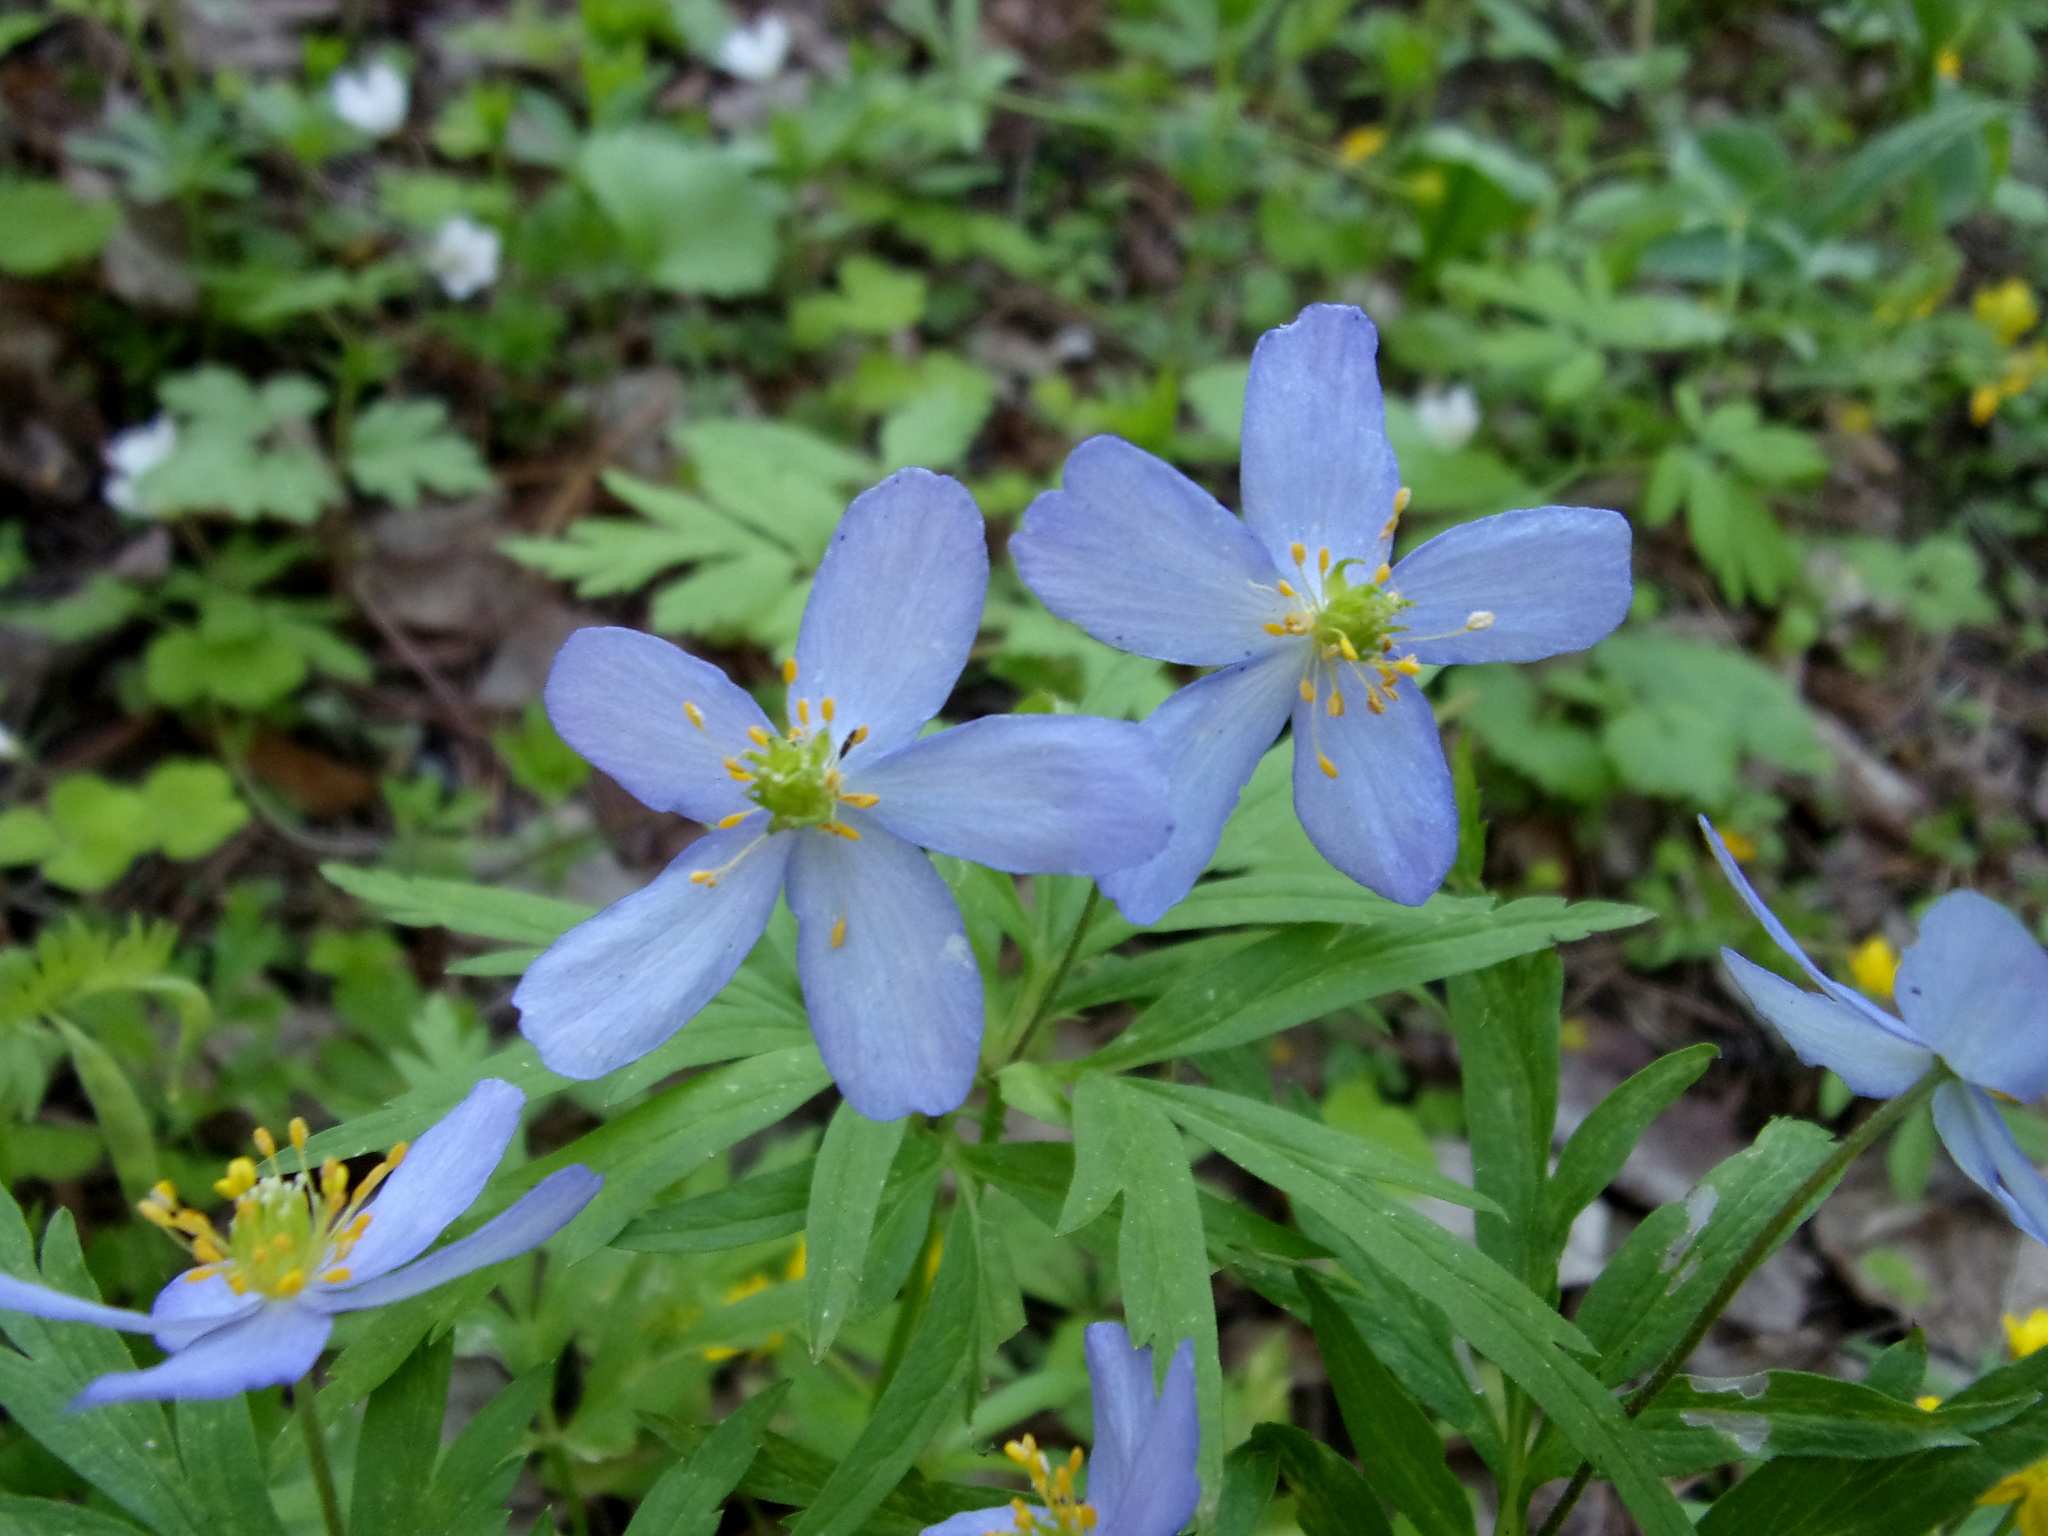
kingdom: Plantae
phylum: Tracheophyta
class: Magnoliopsida
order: Ranunculales
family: Ranunculaceae
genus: Anemone
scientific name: Anemone caerulea
